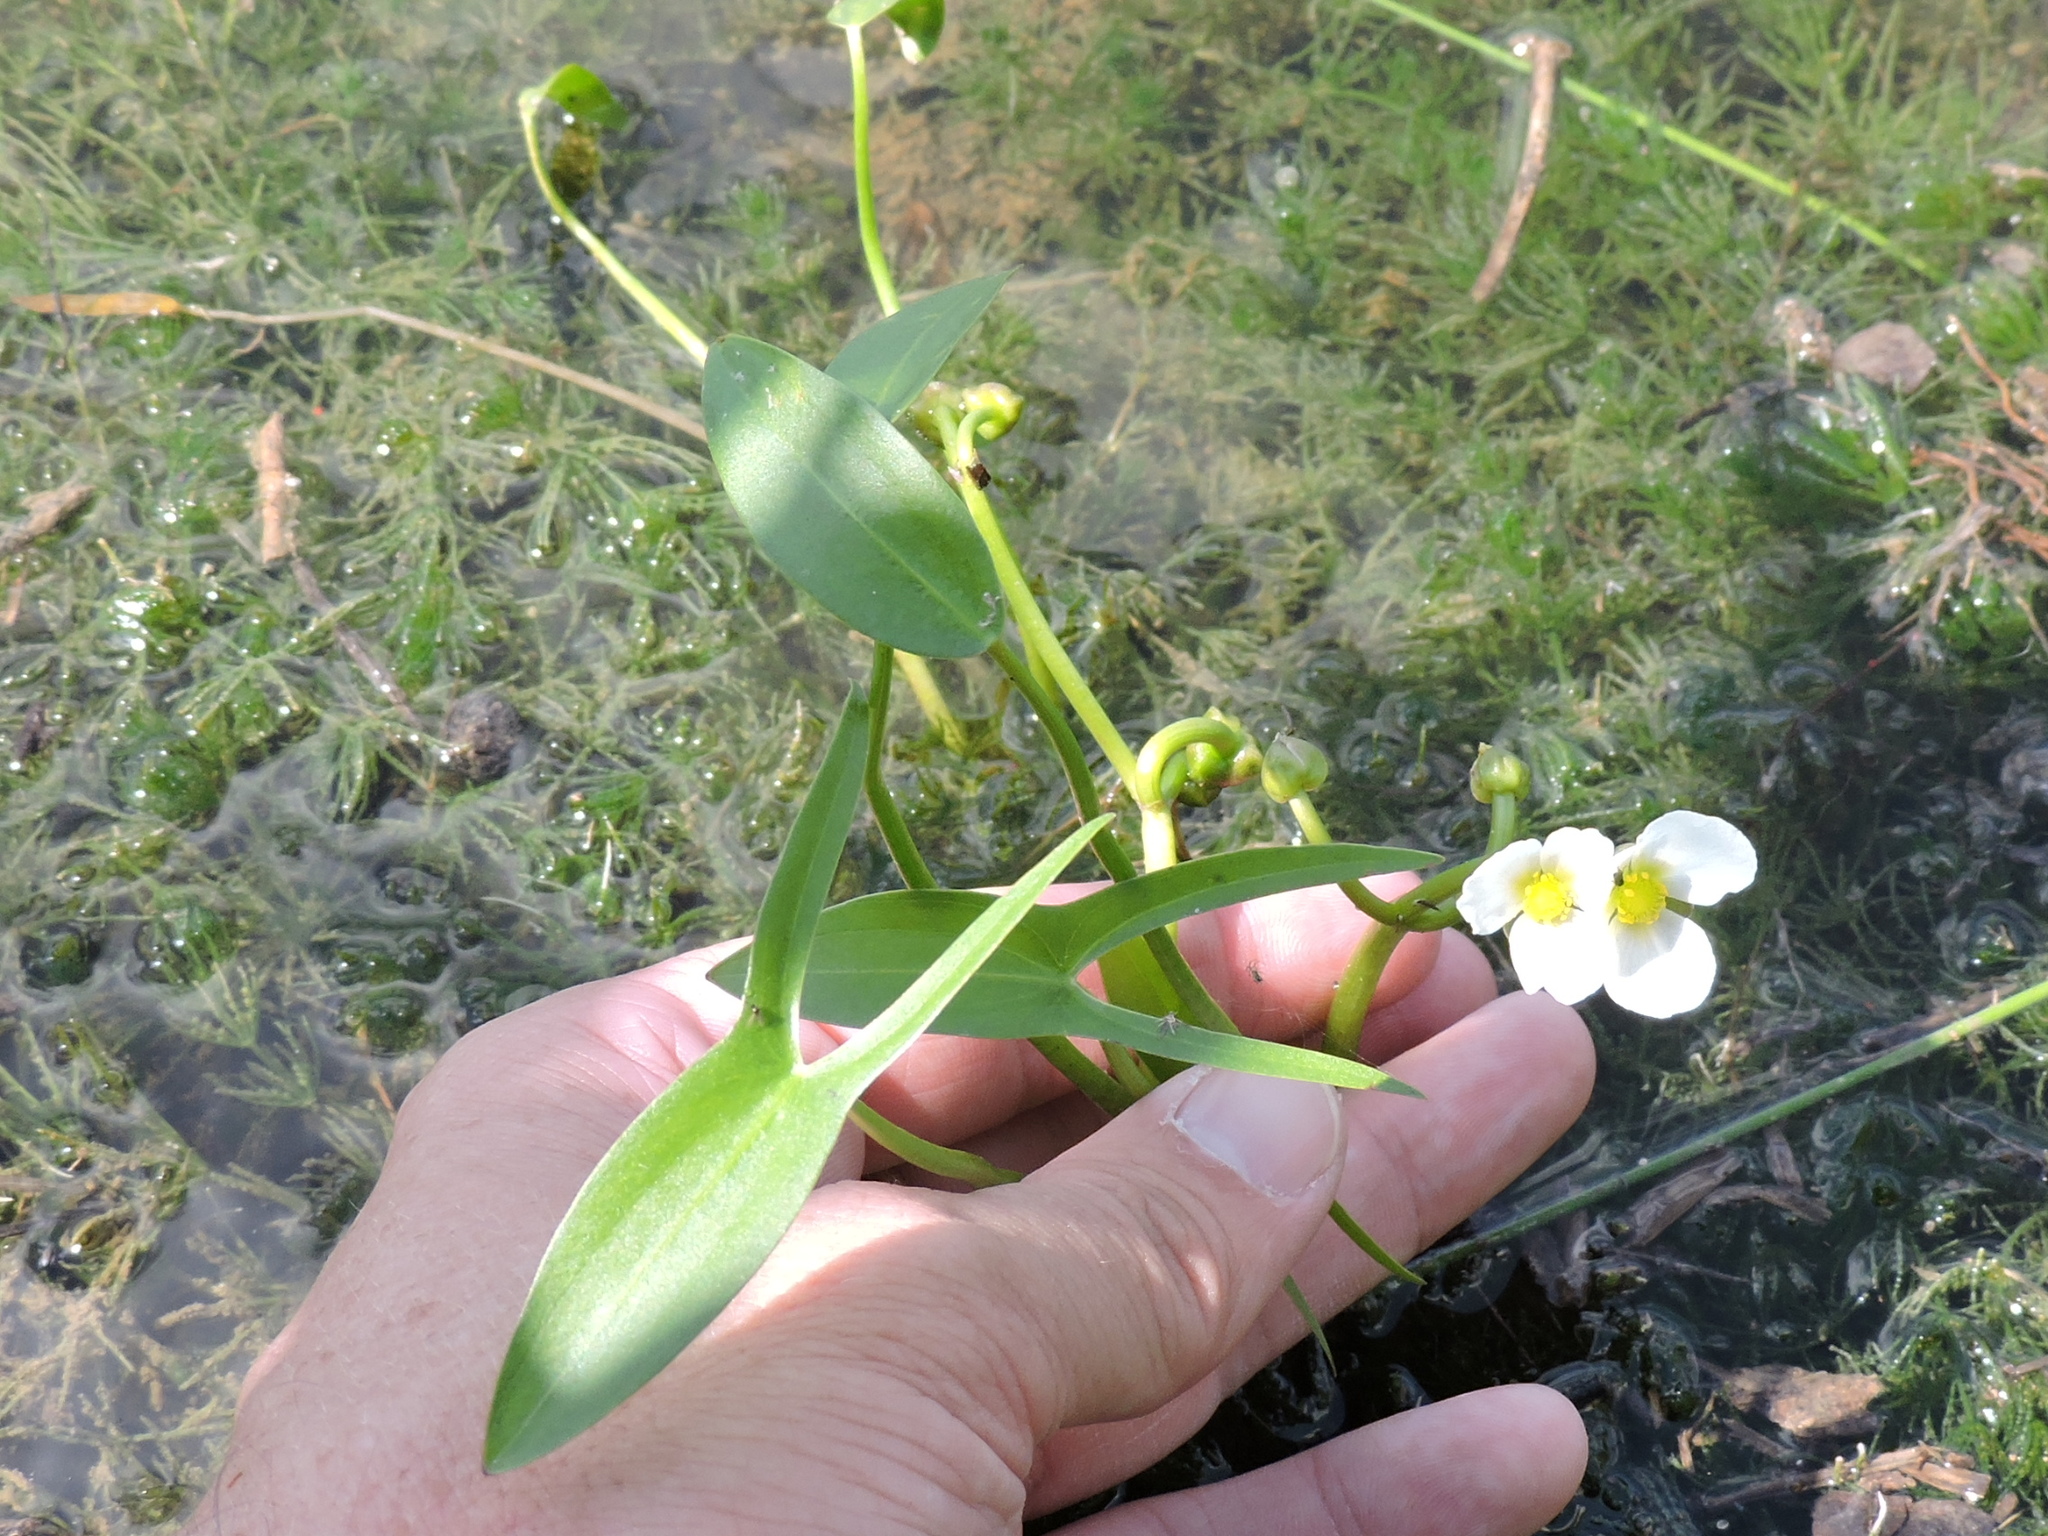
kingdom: Plantae
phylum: Tracheophyta
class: Liliopsida
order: Alismatales
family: Alismataceae
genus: Sagittaria
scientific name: Sagittaria calycina
